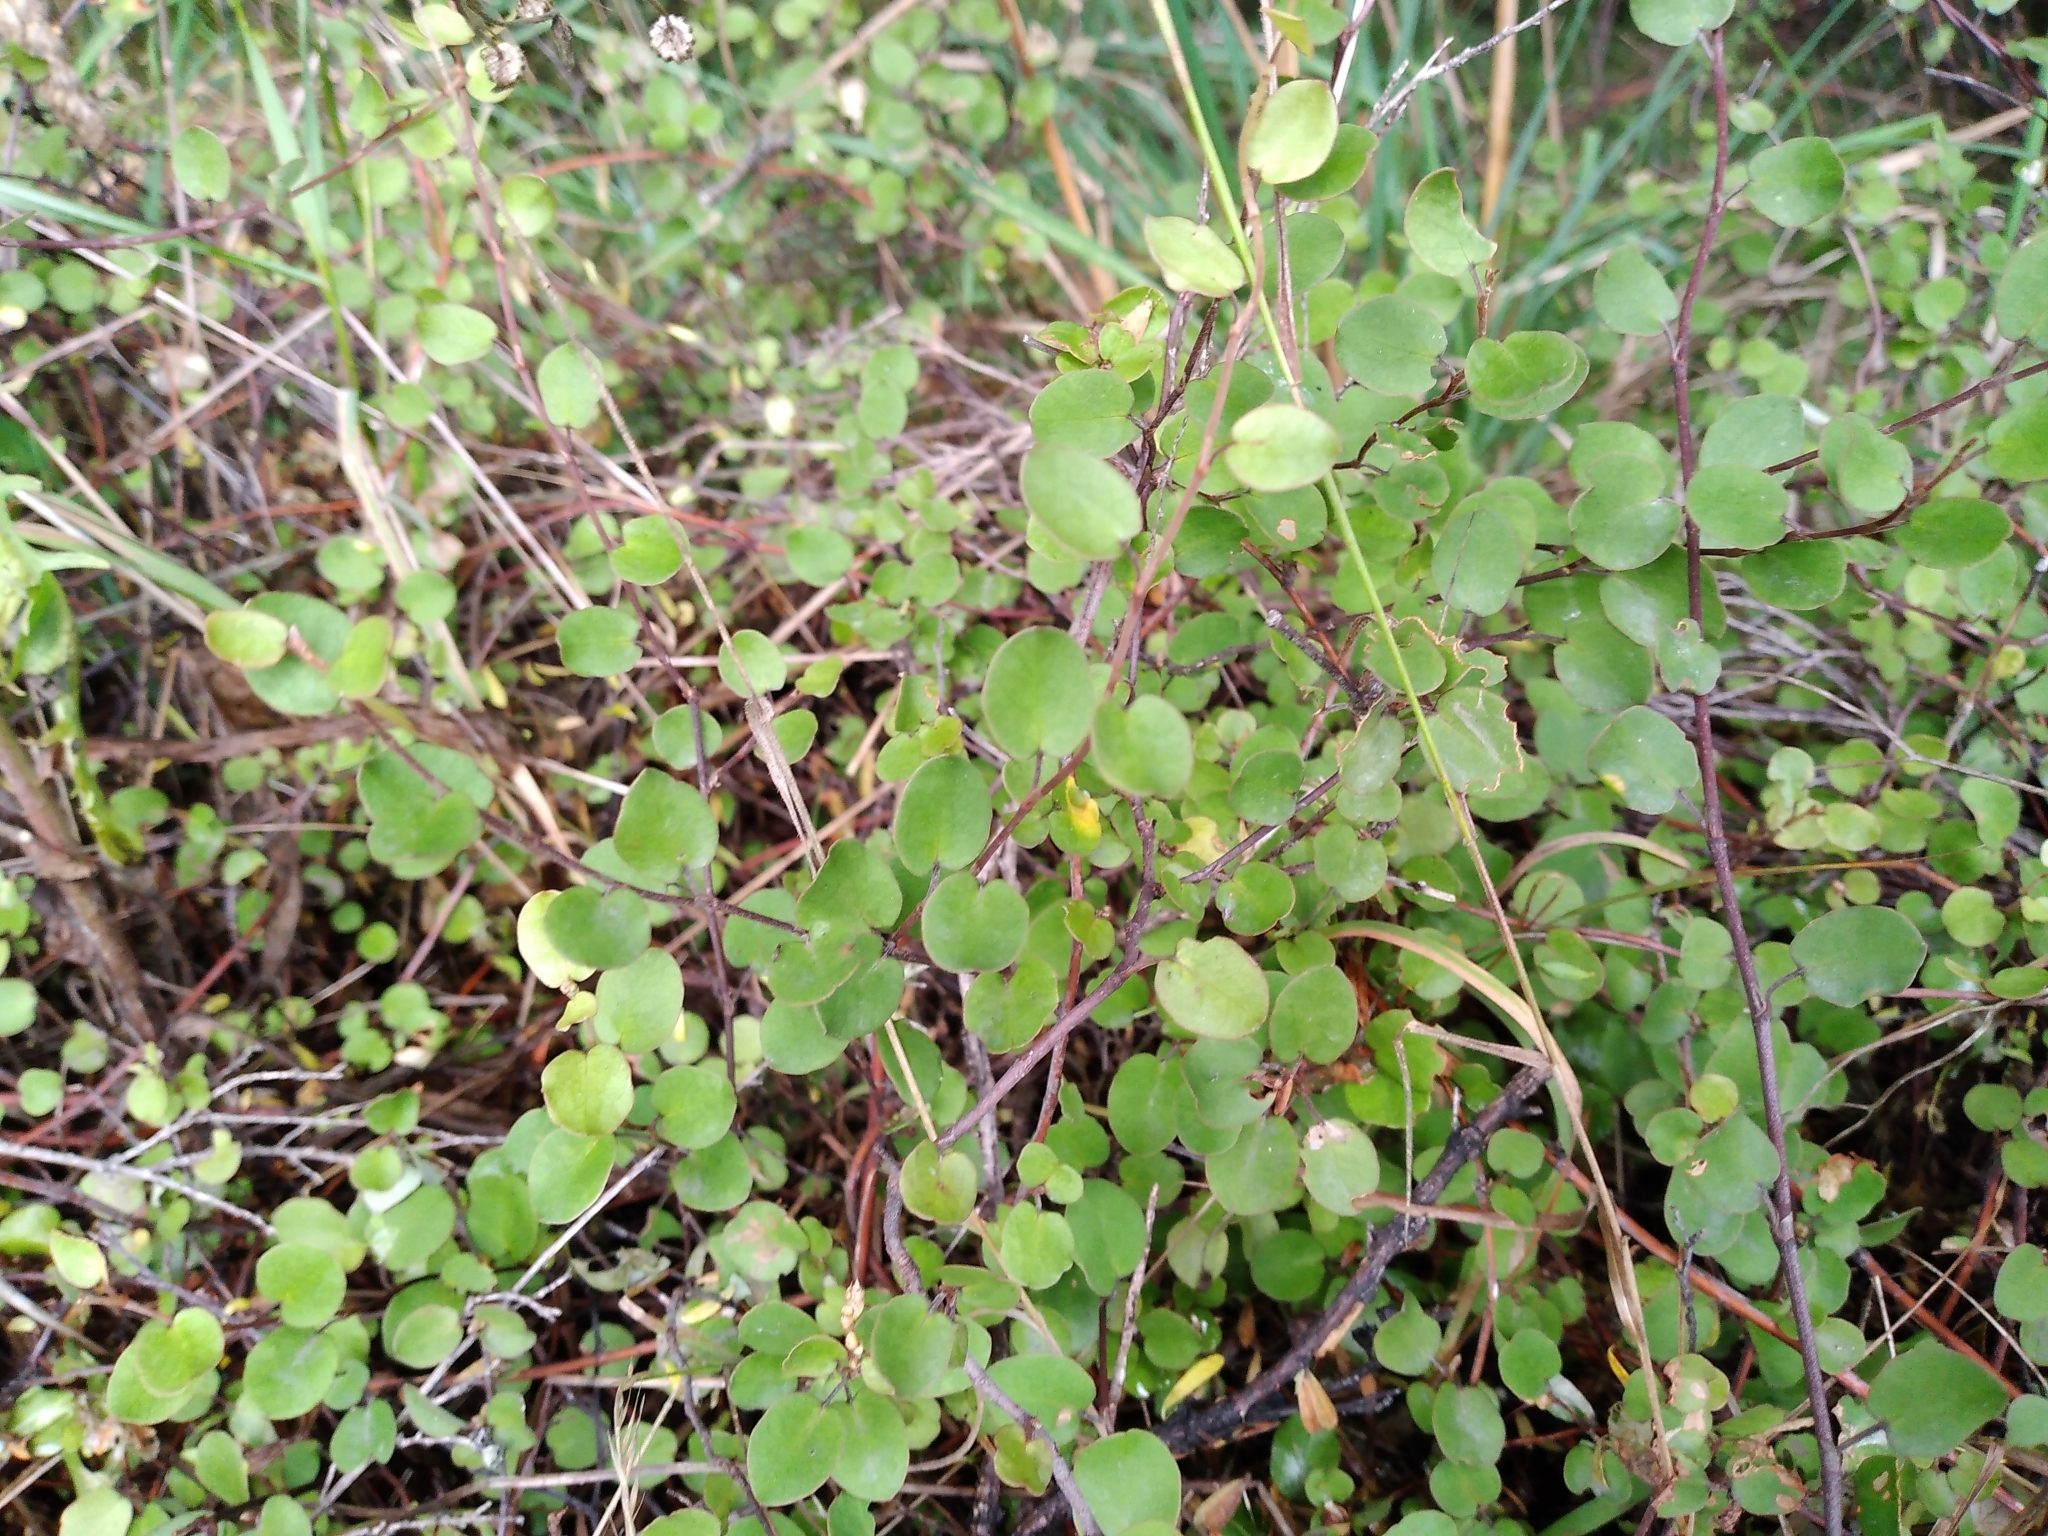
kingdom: Plantae
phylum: Tracheophyta
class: Magnoliopsida
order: Caryophyllales
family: Polygonaceae
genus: Muehlenbeckia
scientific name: Muehlenbeckia complexa
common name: Wireplant
